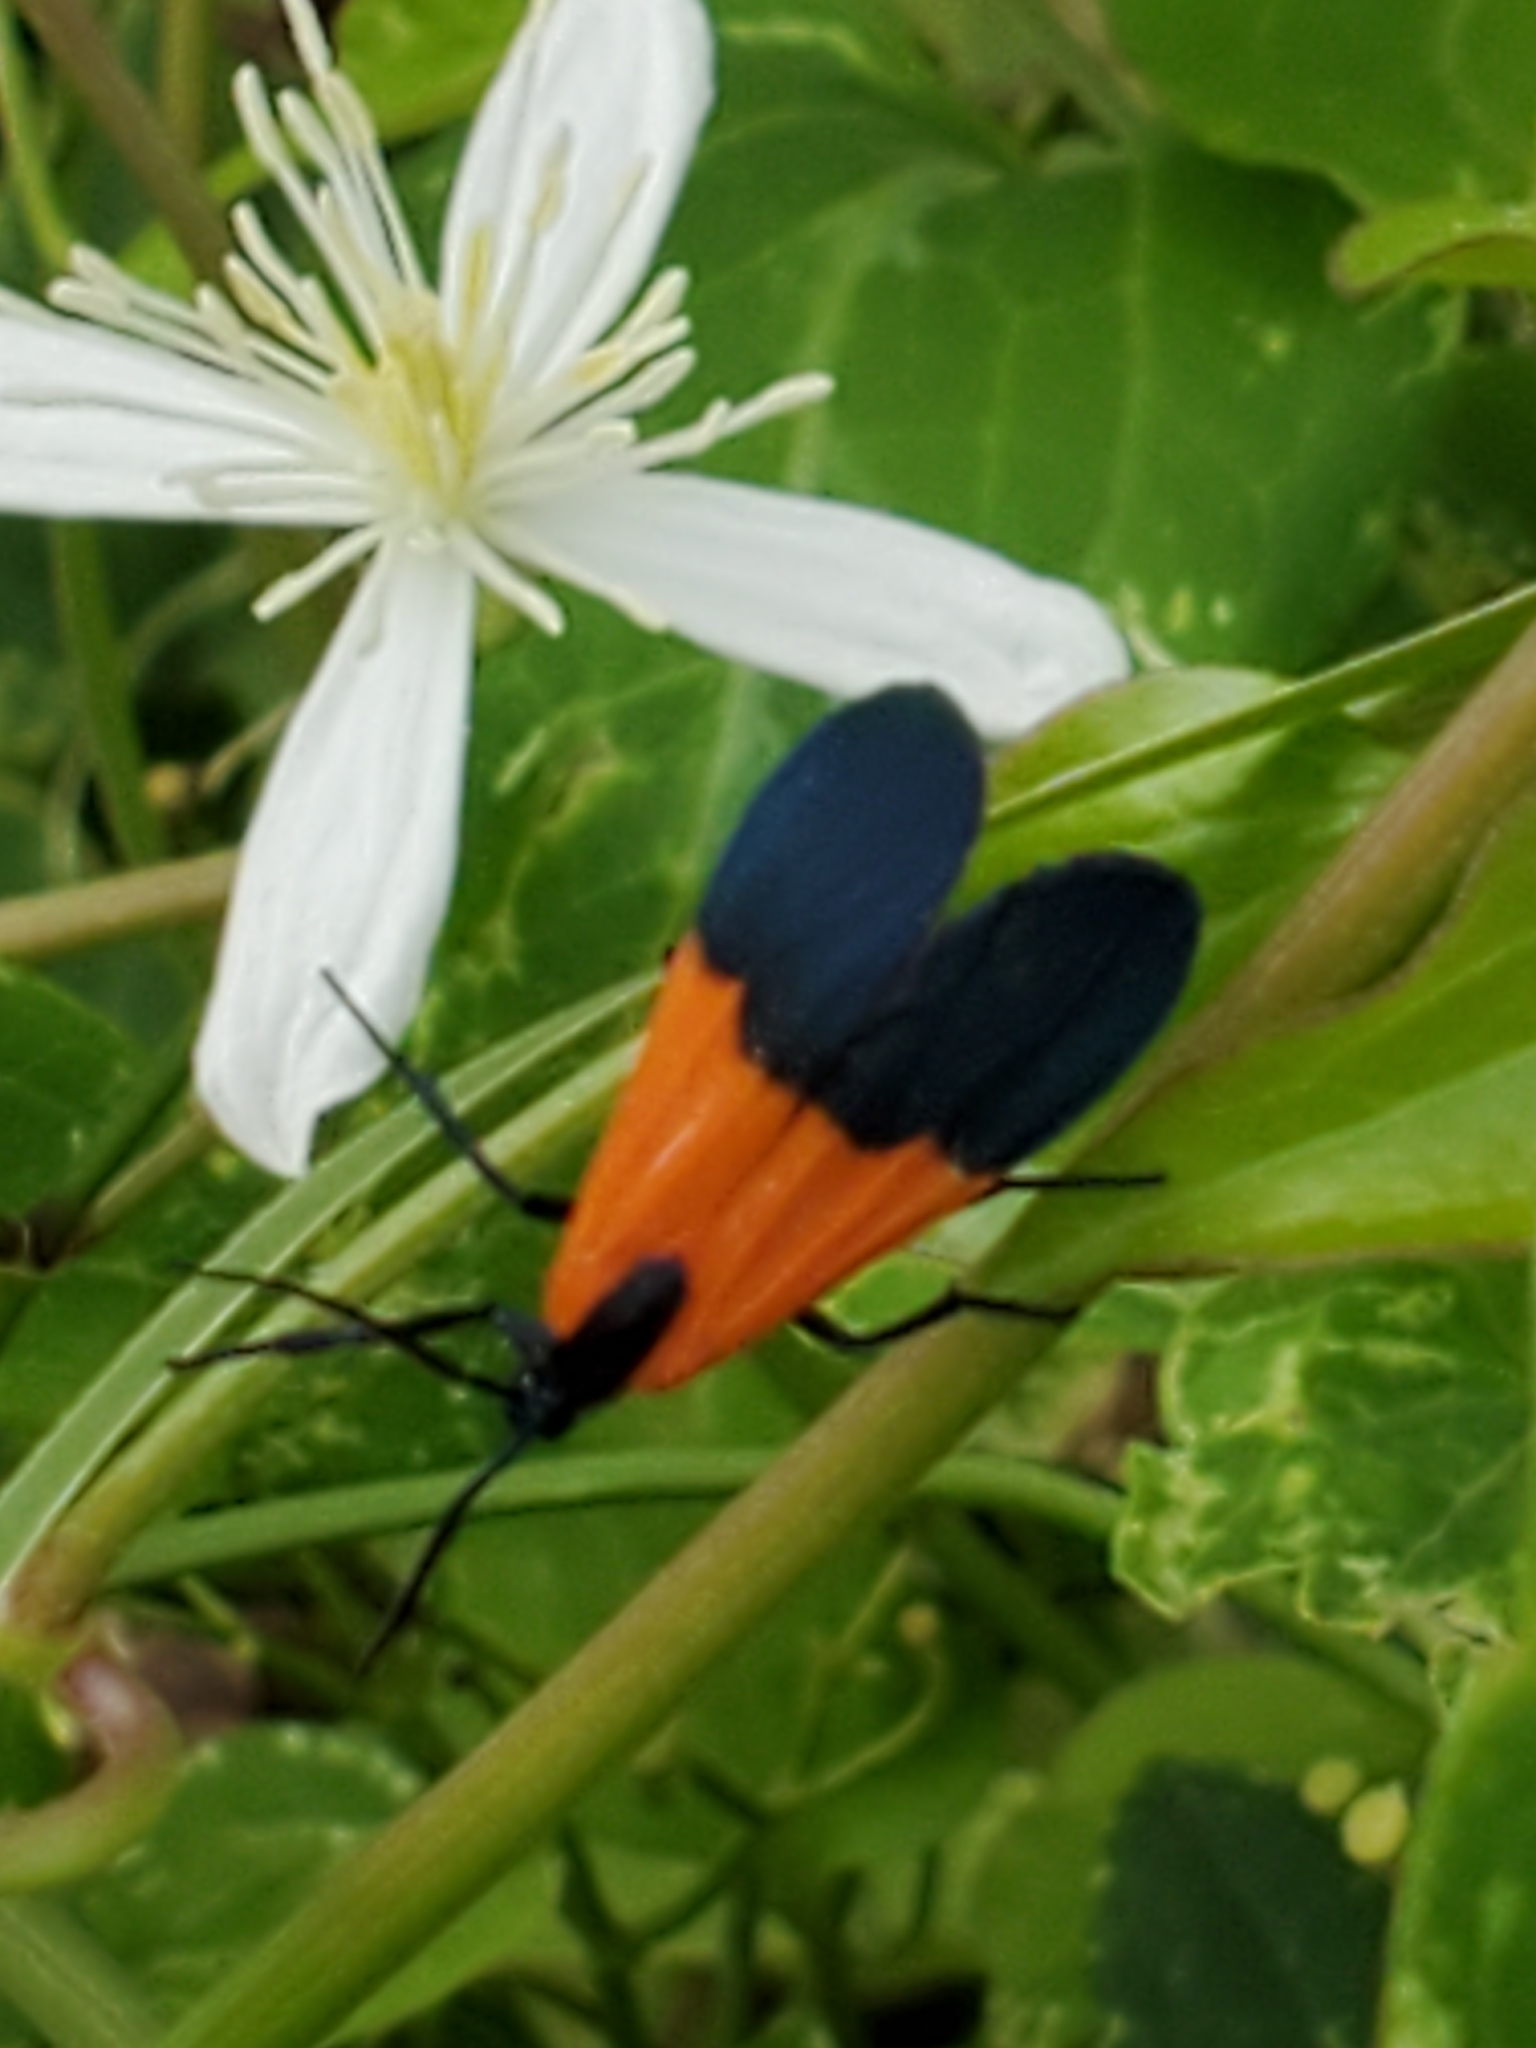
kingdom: Animalia
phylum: Arthropoda
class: Insecta
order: Lepidoptera
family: Erebidae
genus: Lycomorpha
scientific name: Lycomorpha pholus
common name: Black-and-yellow lichen moth
